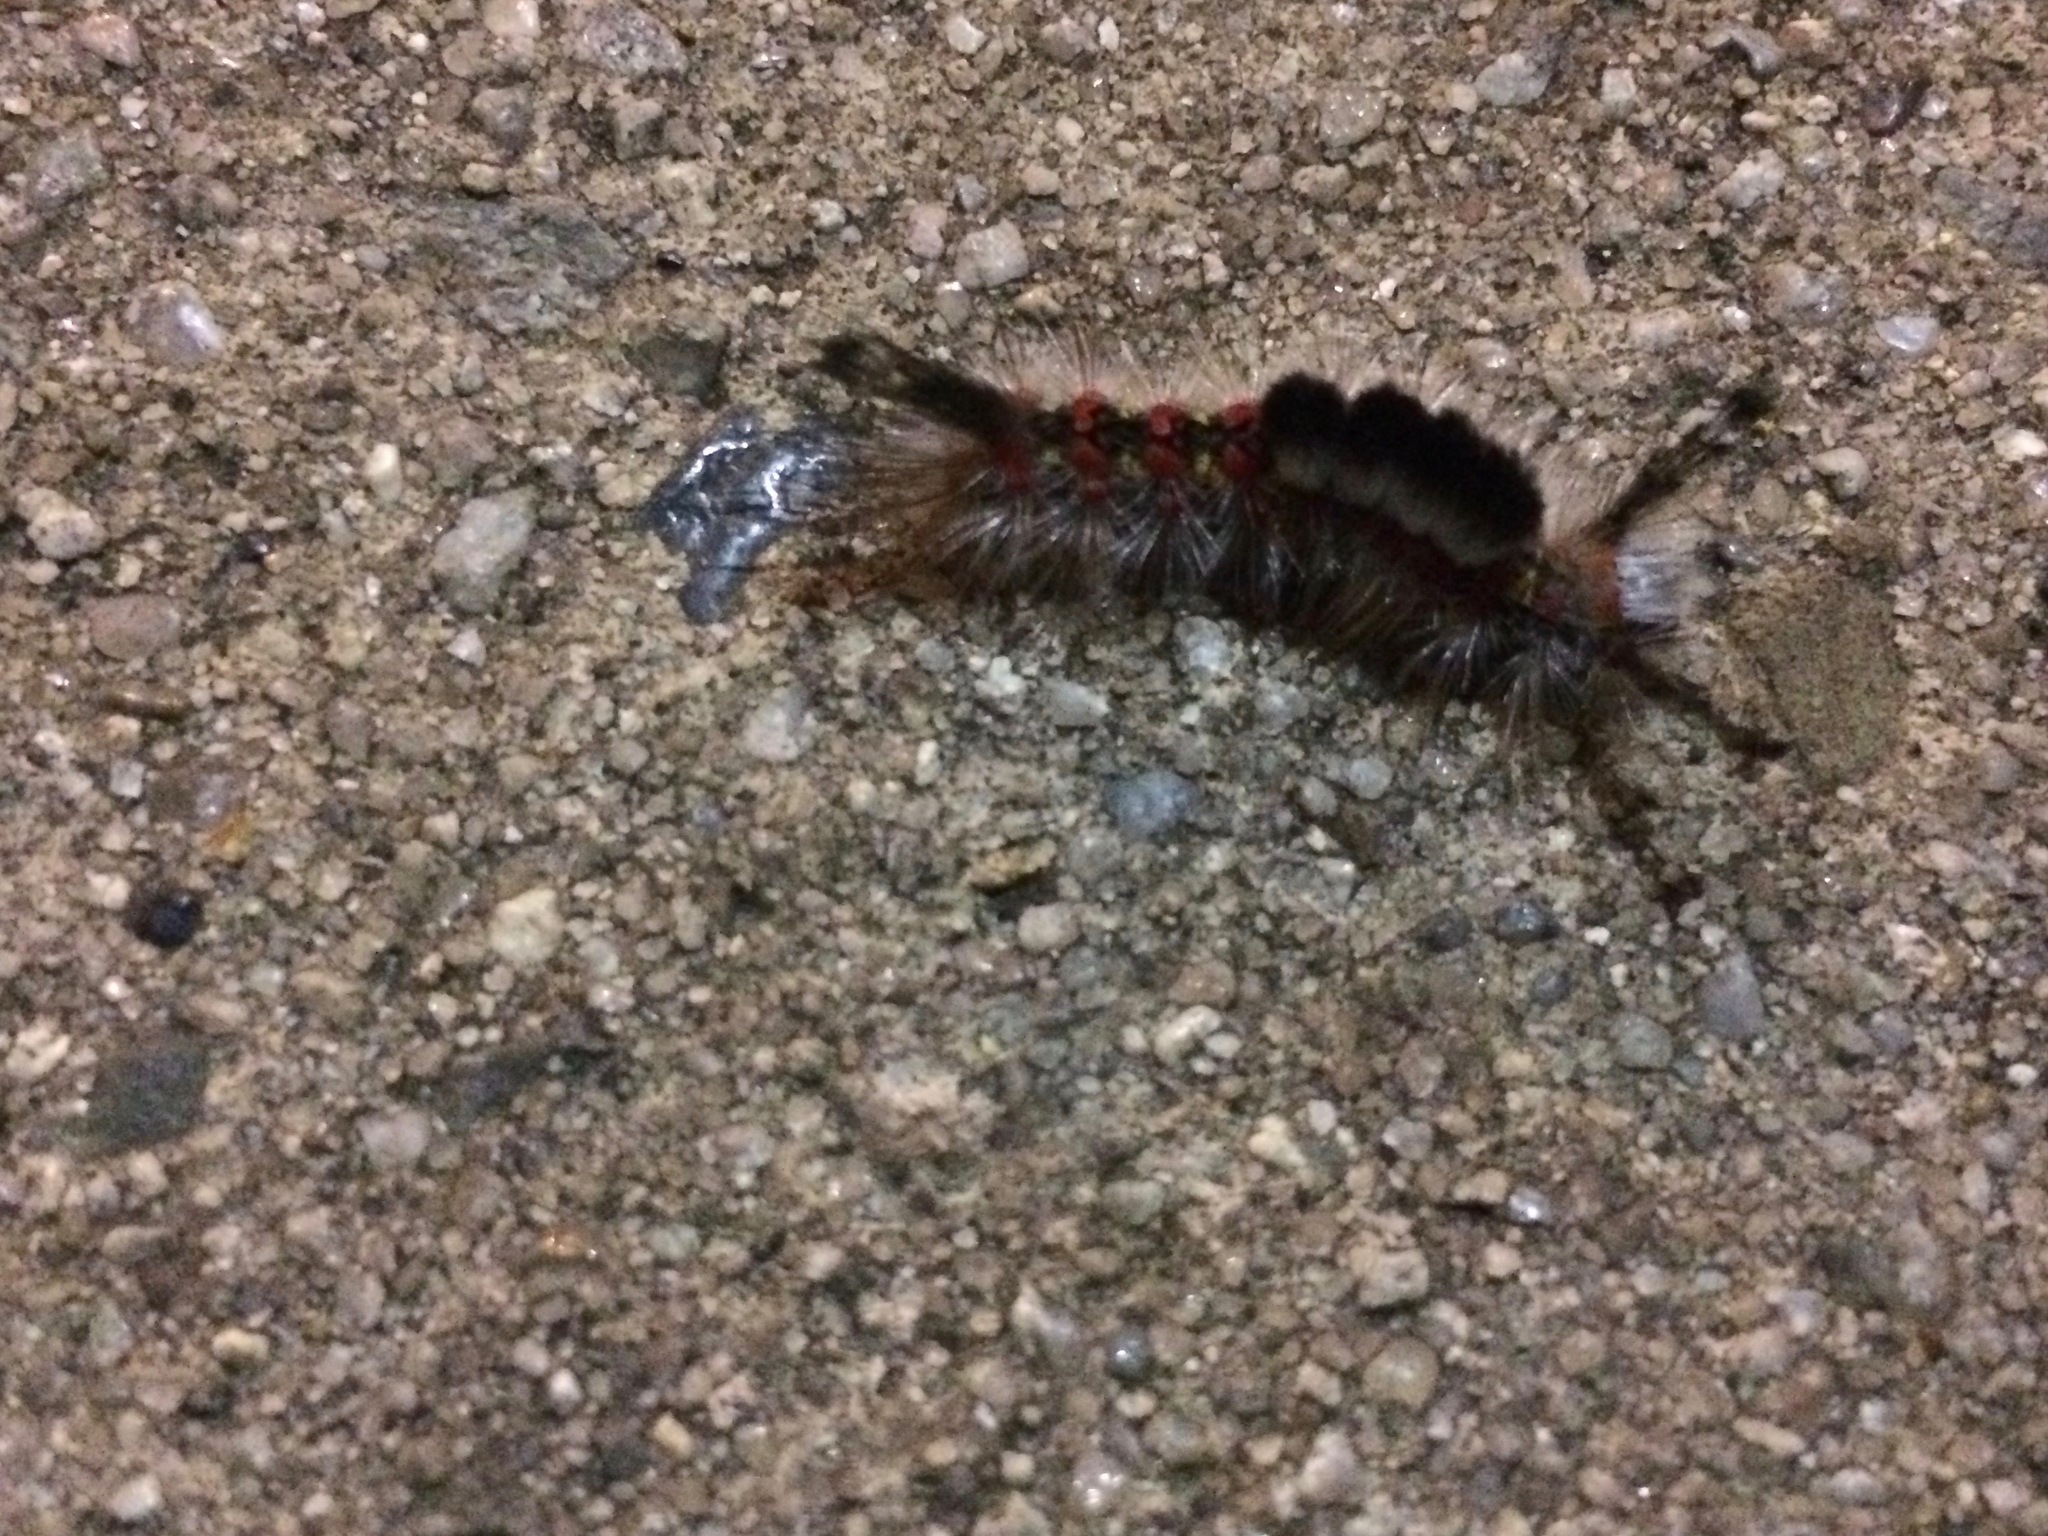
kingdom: Animalia
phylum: Arthropoda
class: Insecta
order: Lepidoptera
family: Erebidae
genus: Orgyia
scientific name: Orgyia vetusta
